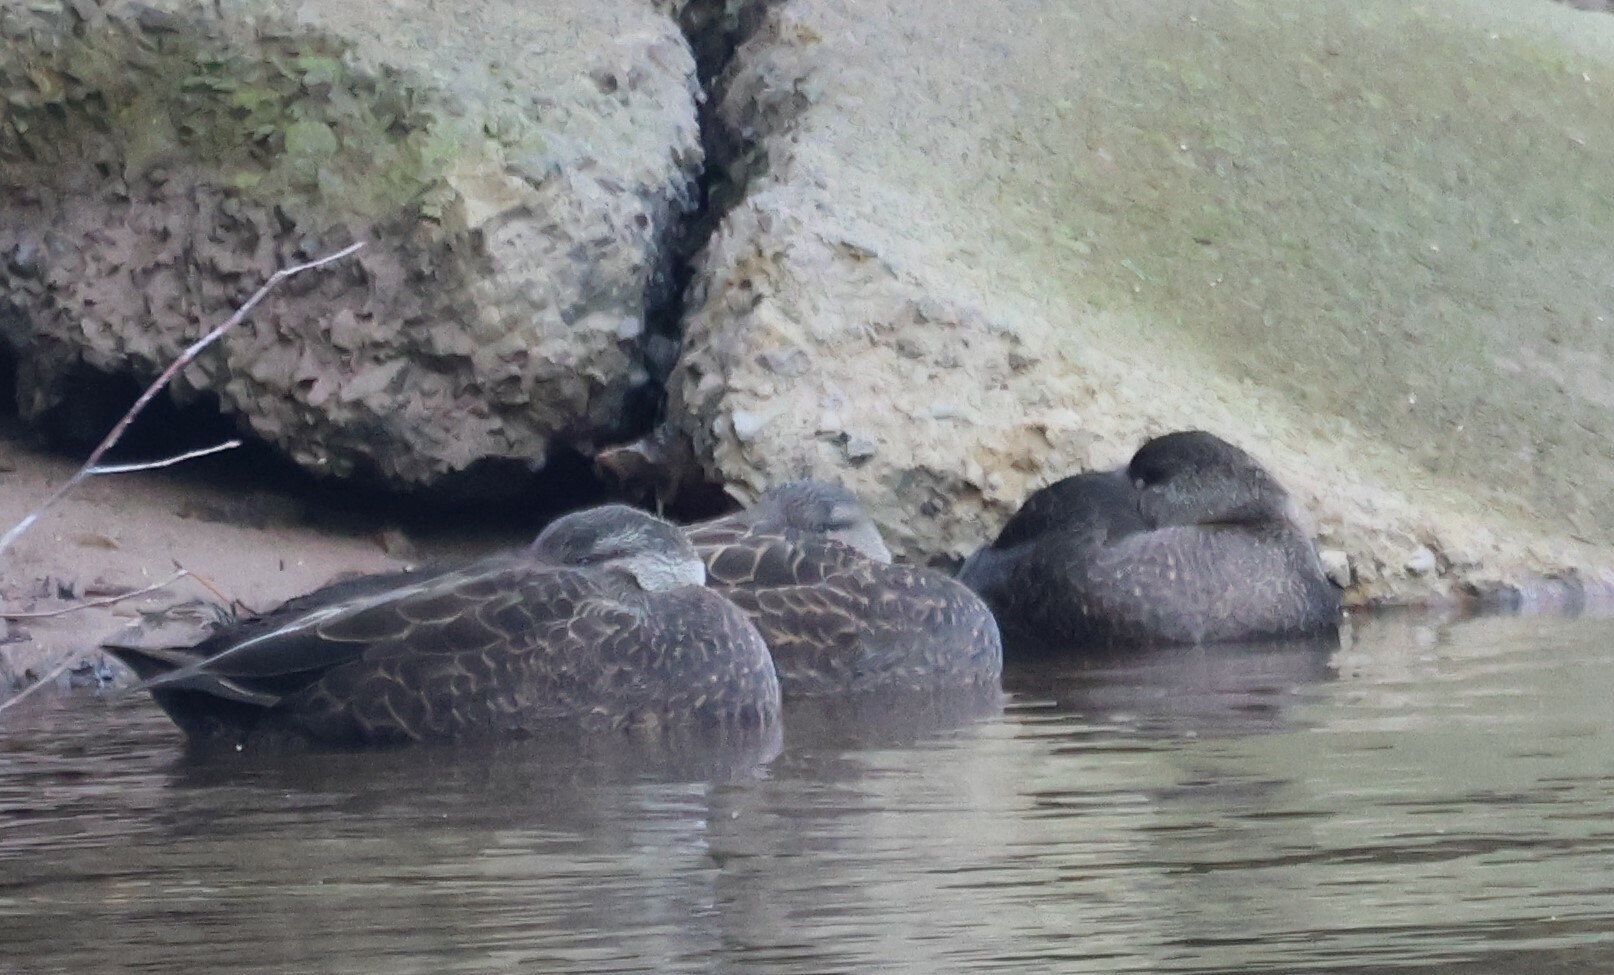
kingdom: Animalia
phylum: Chordata
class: Aves
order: Anseriformes
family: Anatidae
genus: Anas
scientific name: Anas rubripes
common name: American black duck
